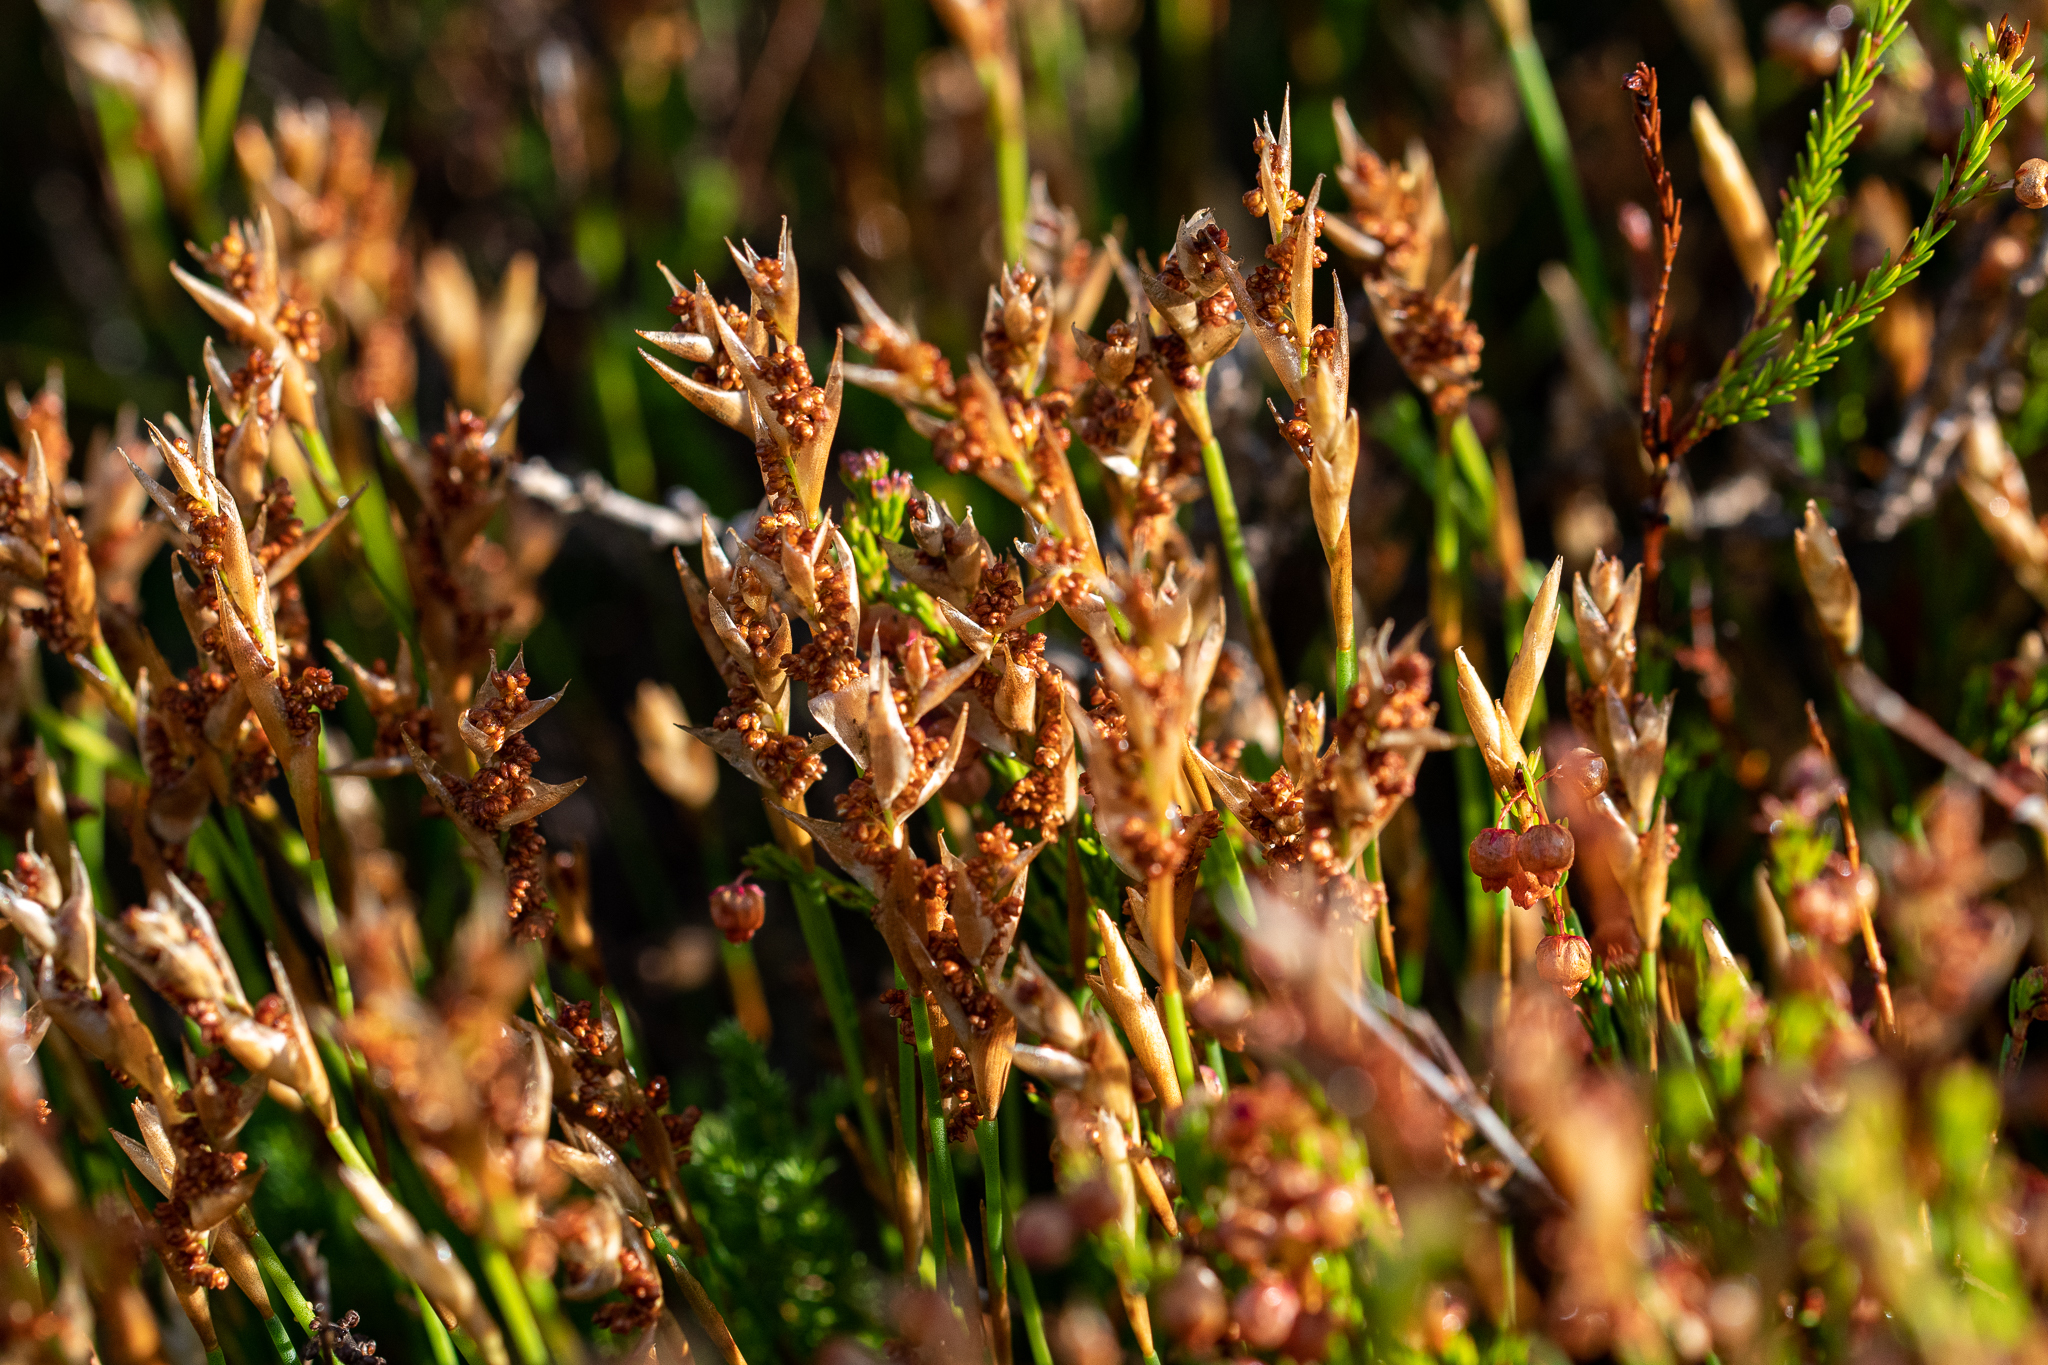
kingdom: Plantae
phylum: Tracheophyta
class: Liliopsida
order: Poales
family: Restionaceae
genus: Elegia
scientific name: Elegia filacea
